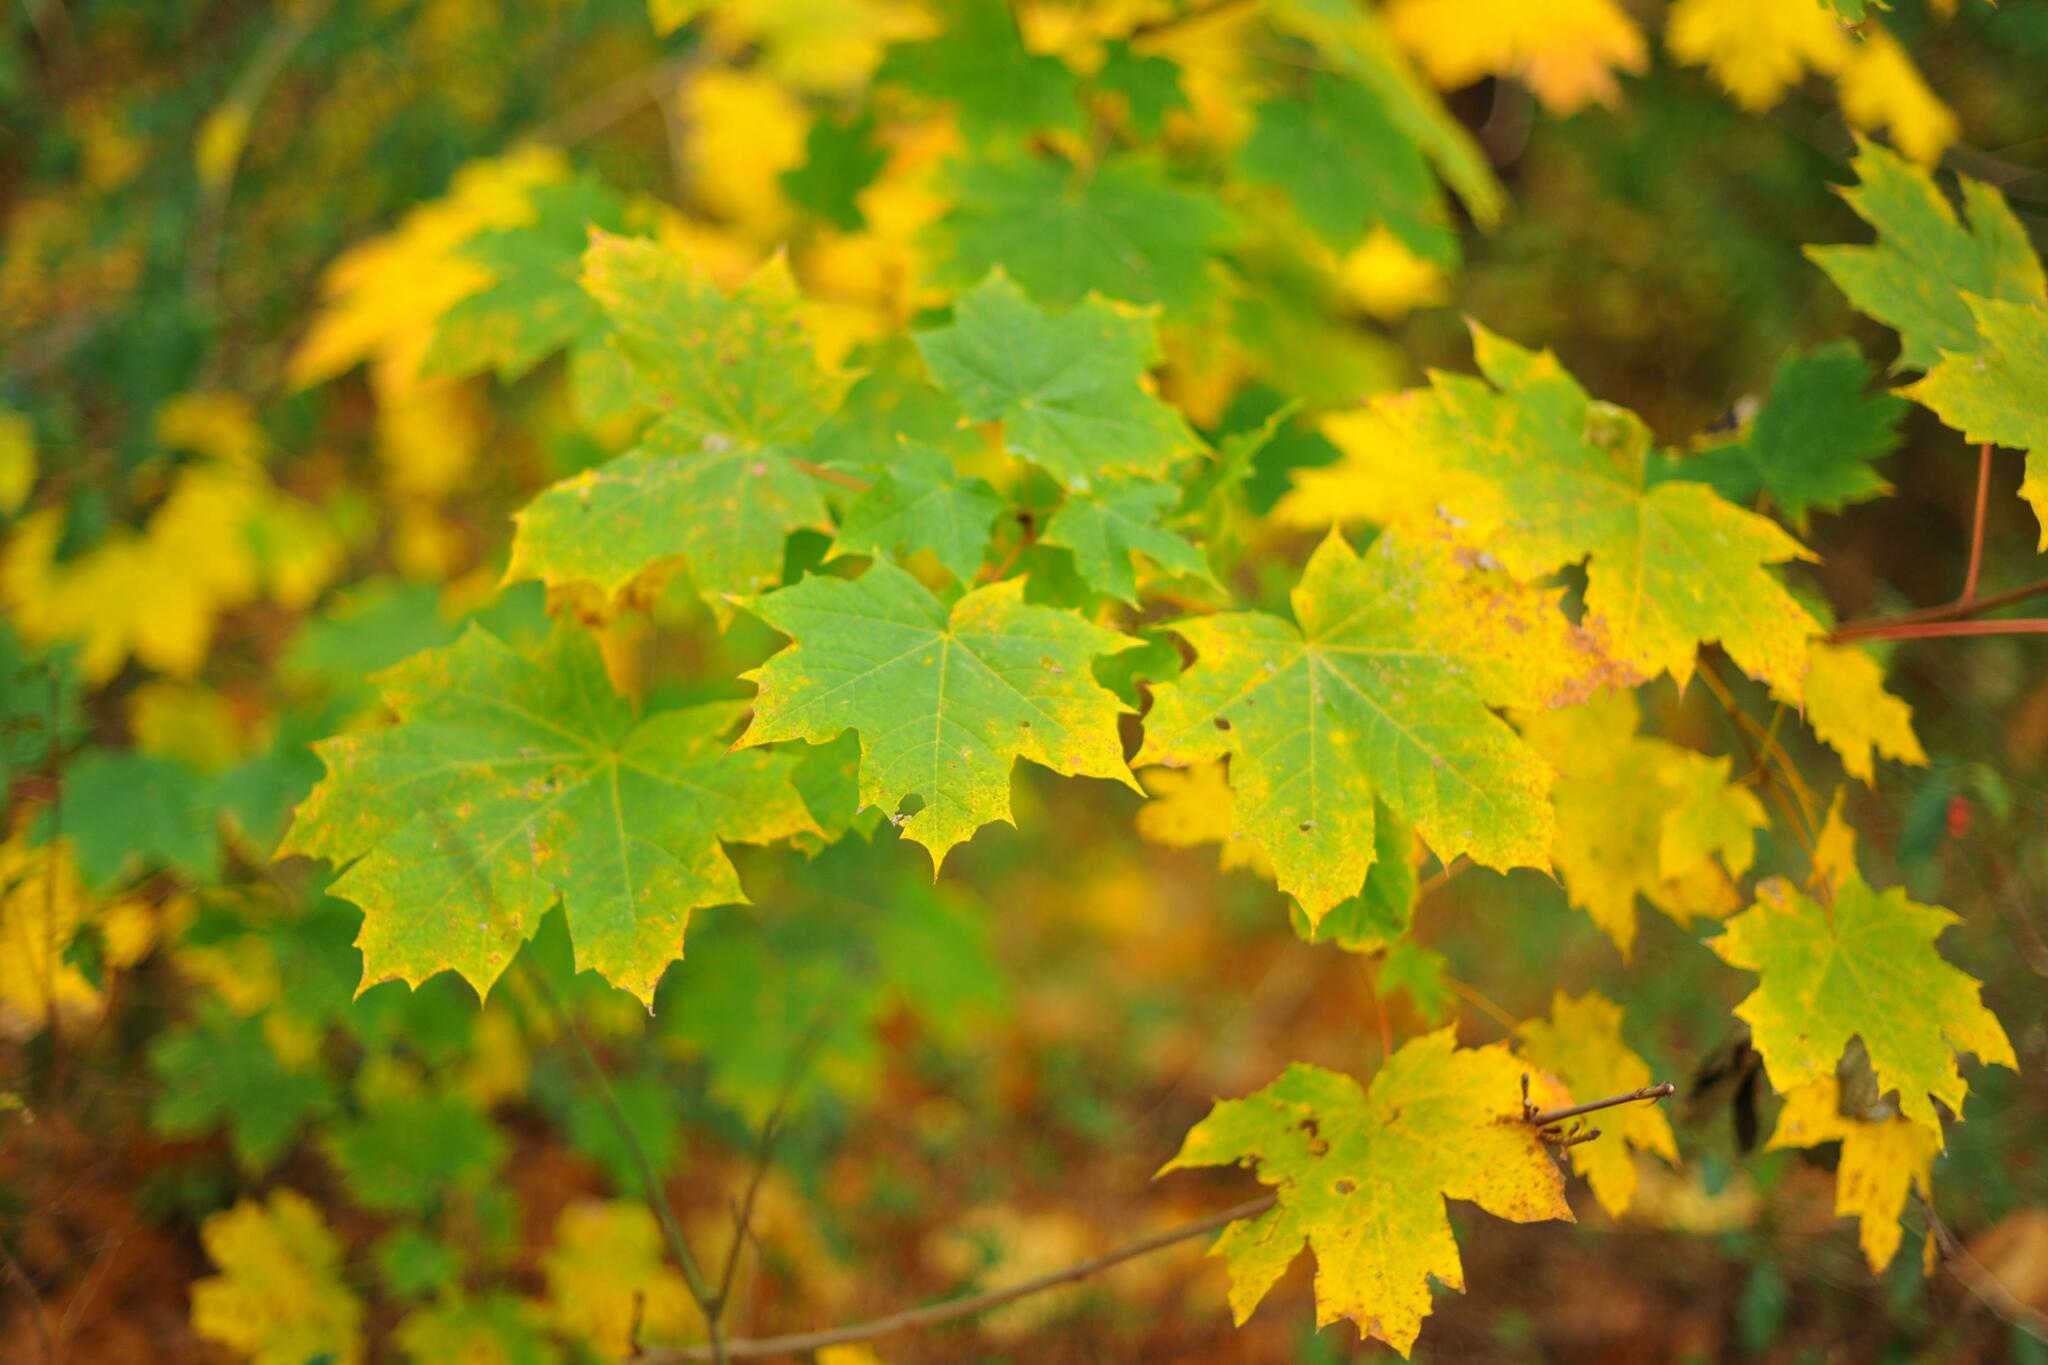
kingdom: Plantae
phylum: Tracheophyta
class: Magnoliopsida
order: Sapindales
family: Sapindaceae
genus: Acer
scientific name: Acer platanoides
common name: Norway maple
